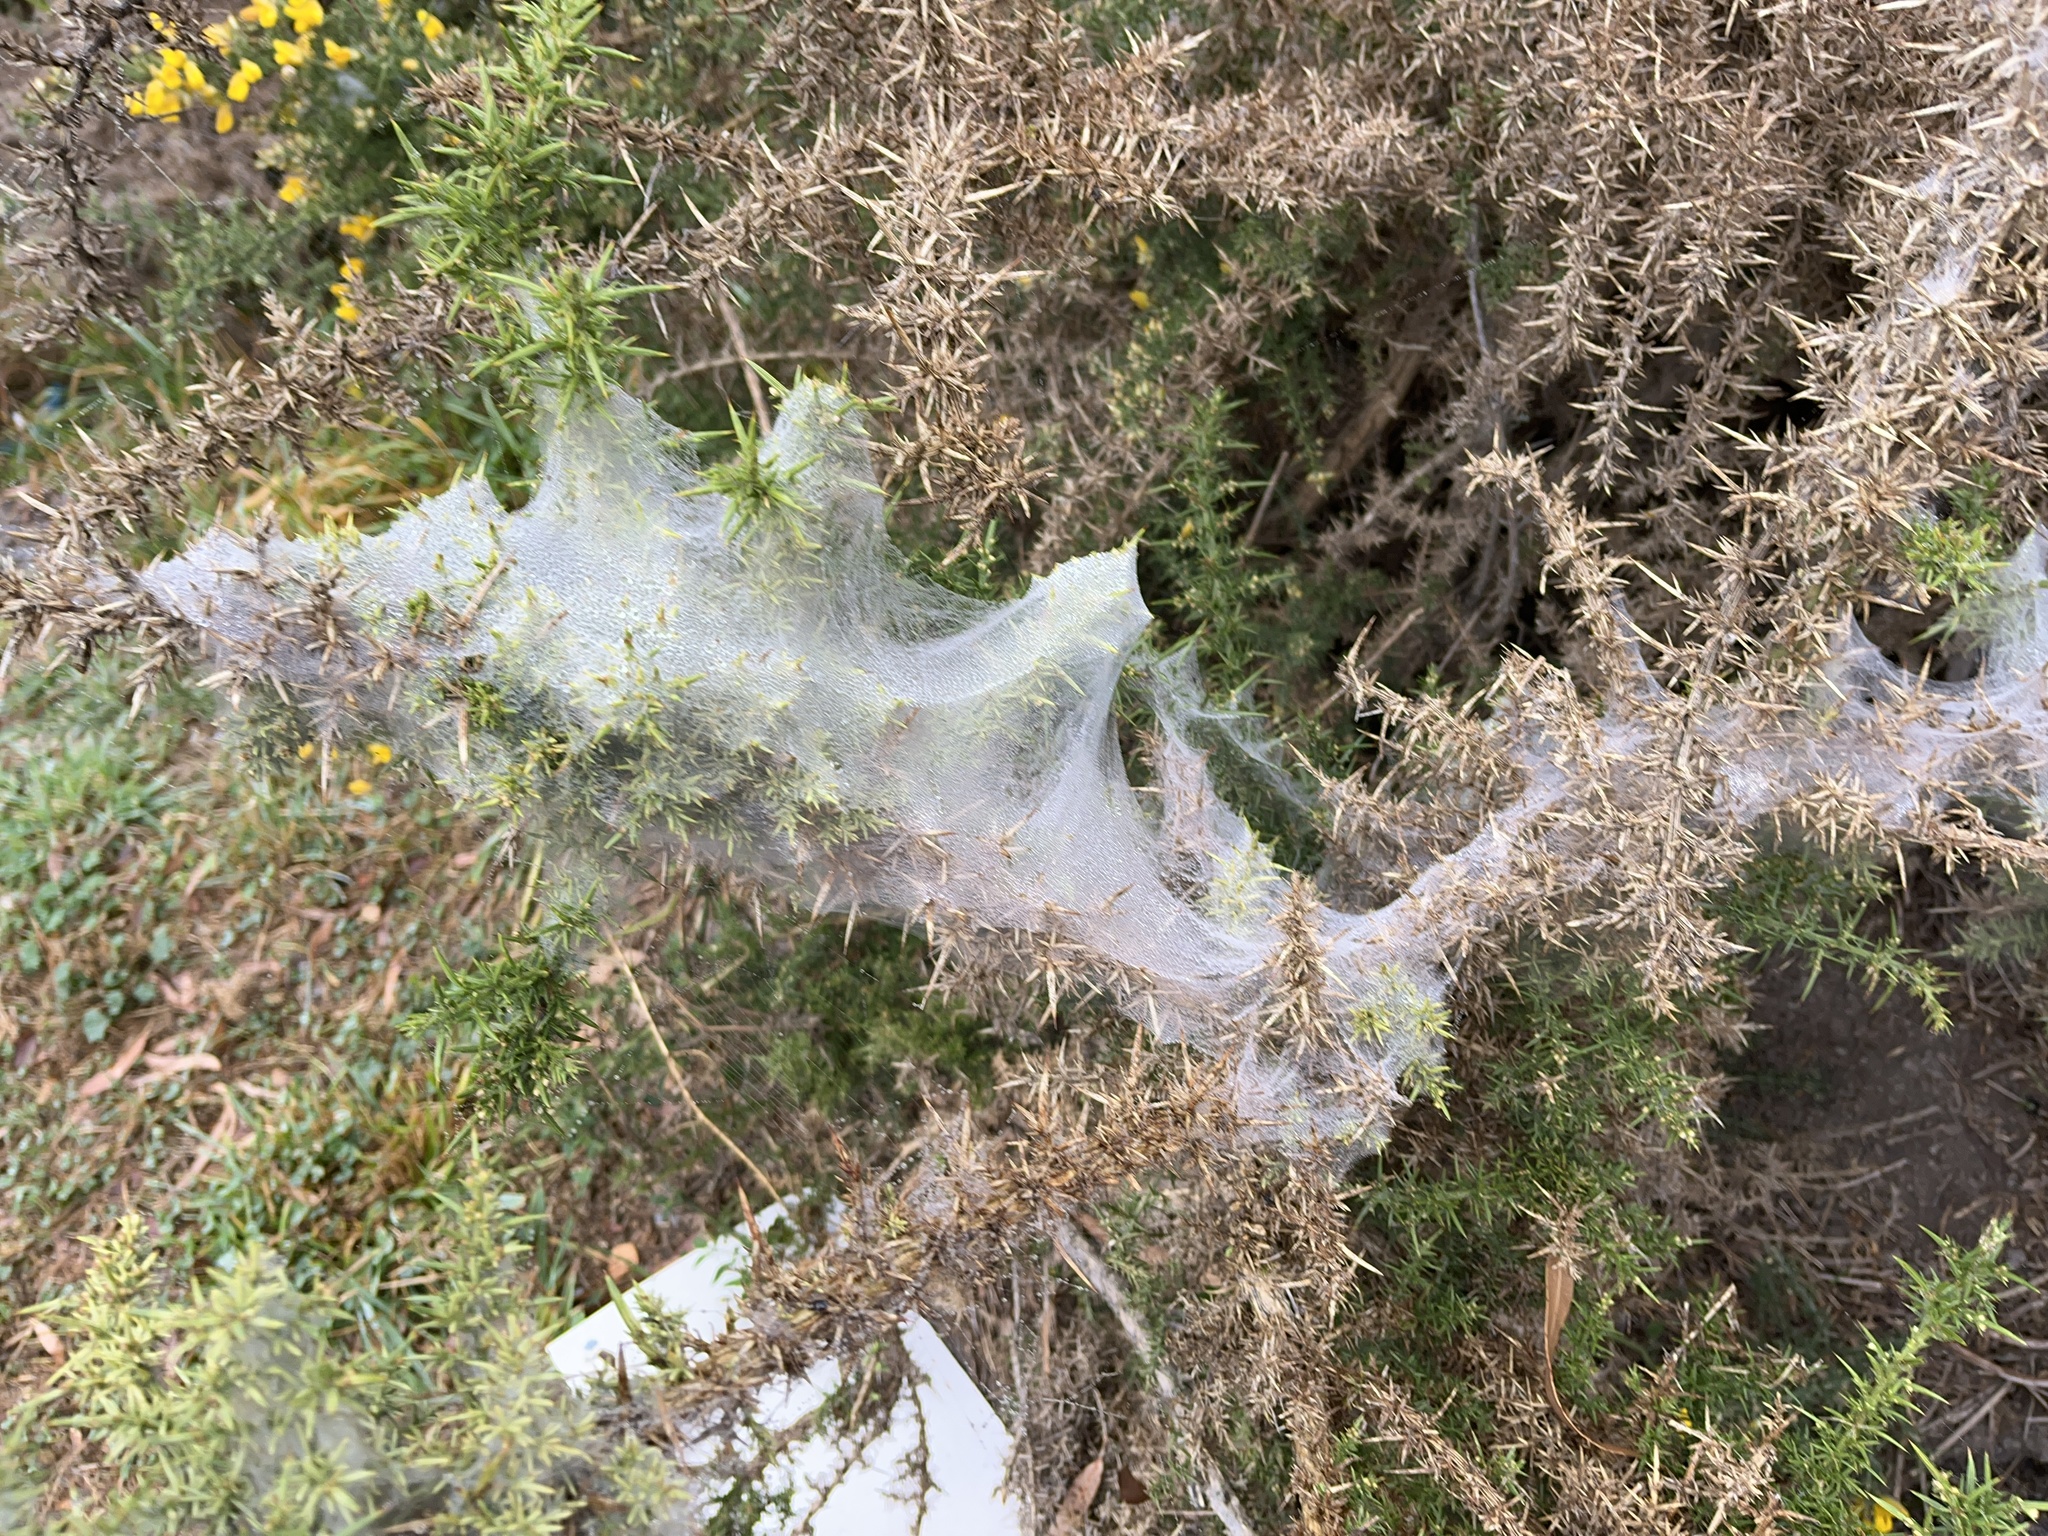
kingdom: Animalia
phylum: Arthropoda
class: Arachnida
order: Trombidiformes
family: Tetranychidae
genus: Tetranychus
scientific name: Tetranychus lintearius
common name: Gorse spider mite
